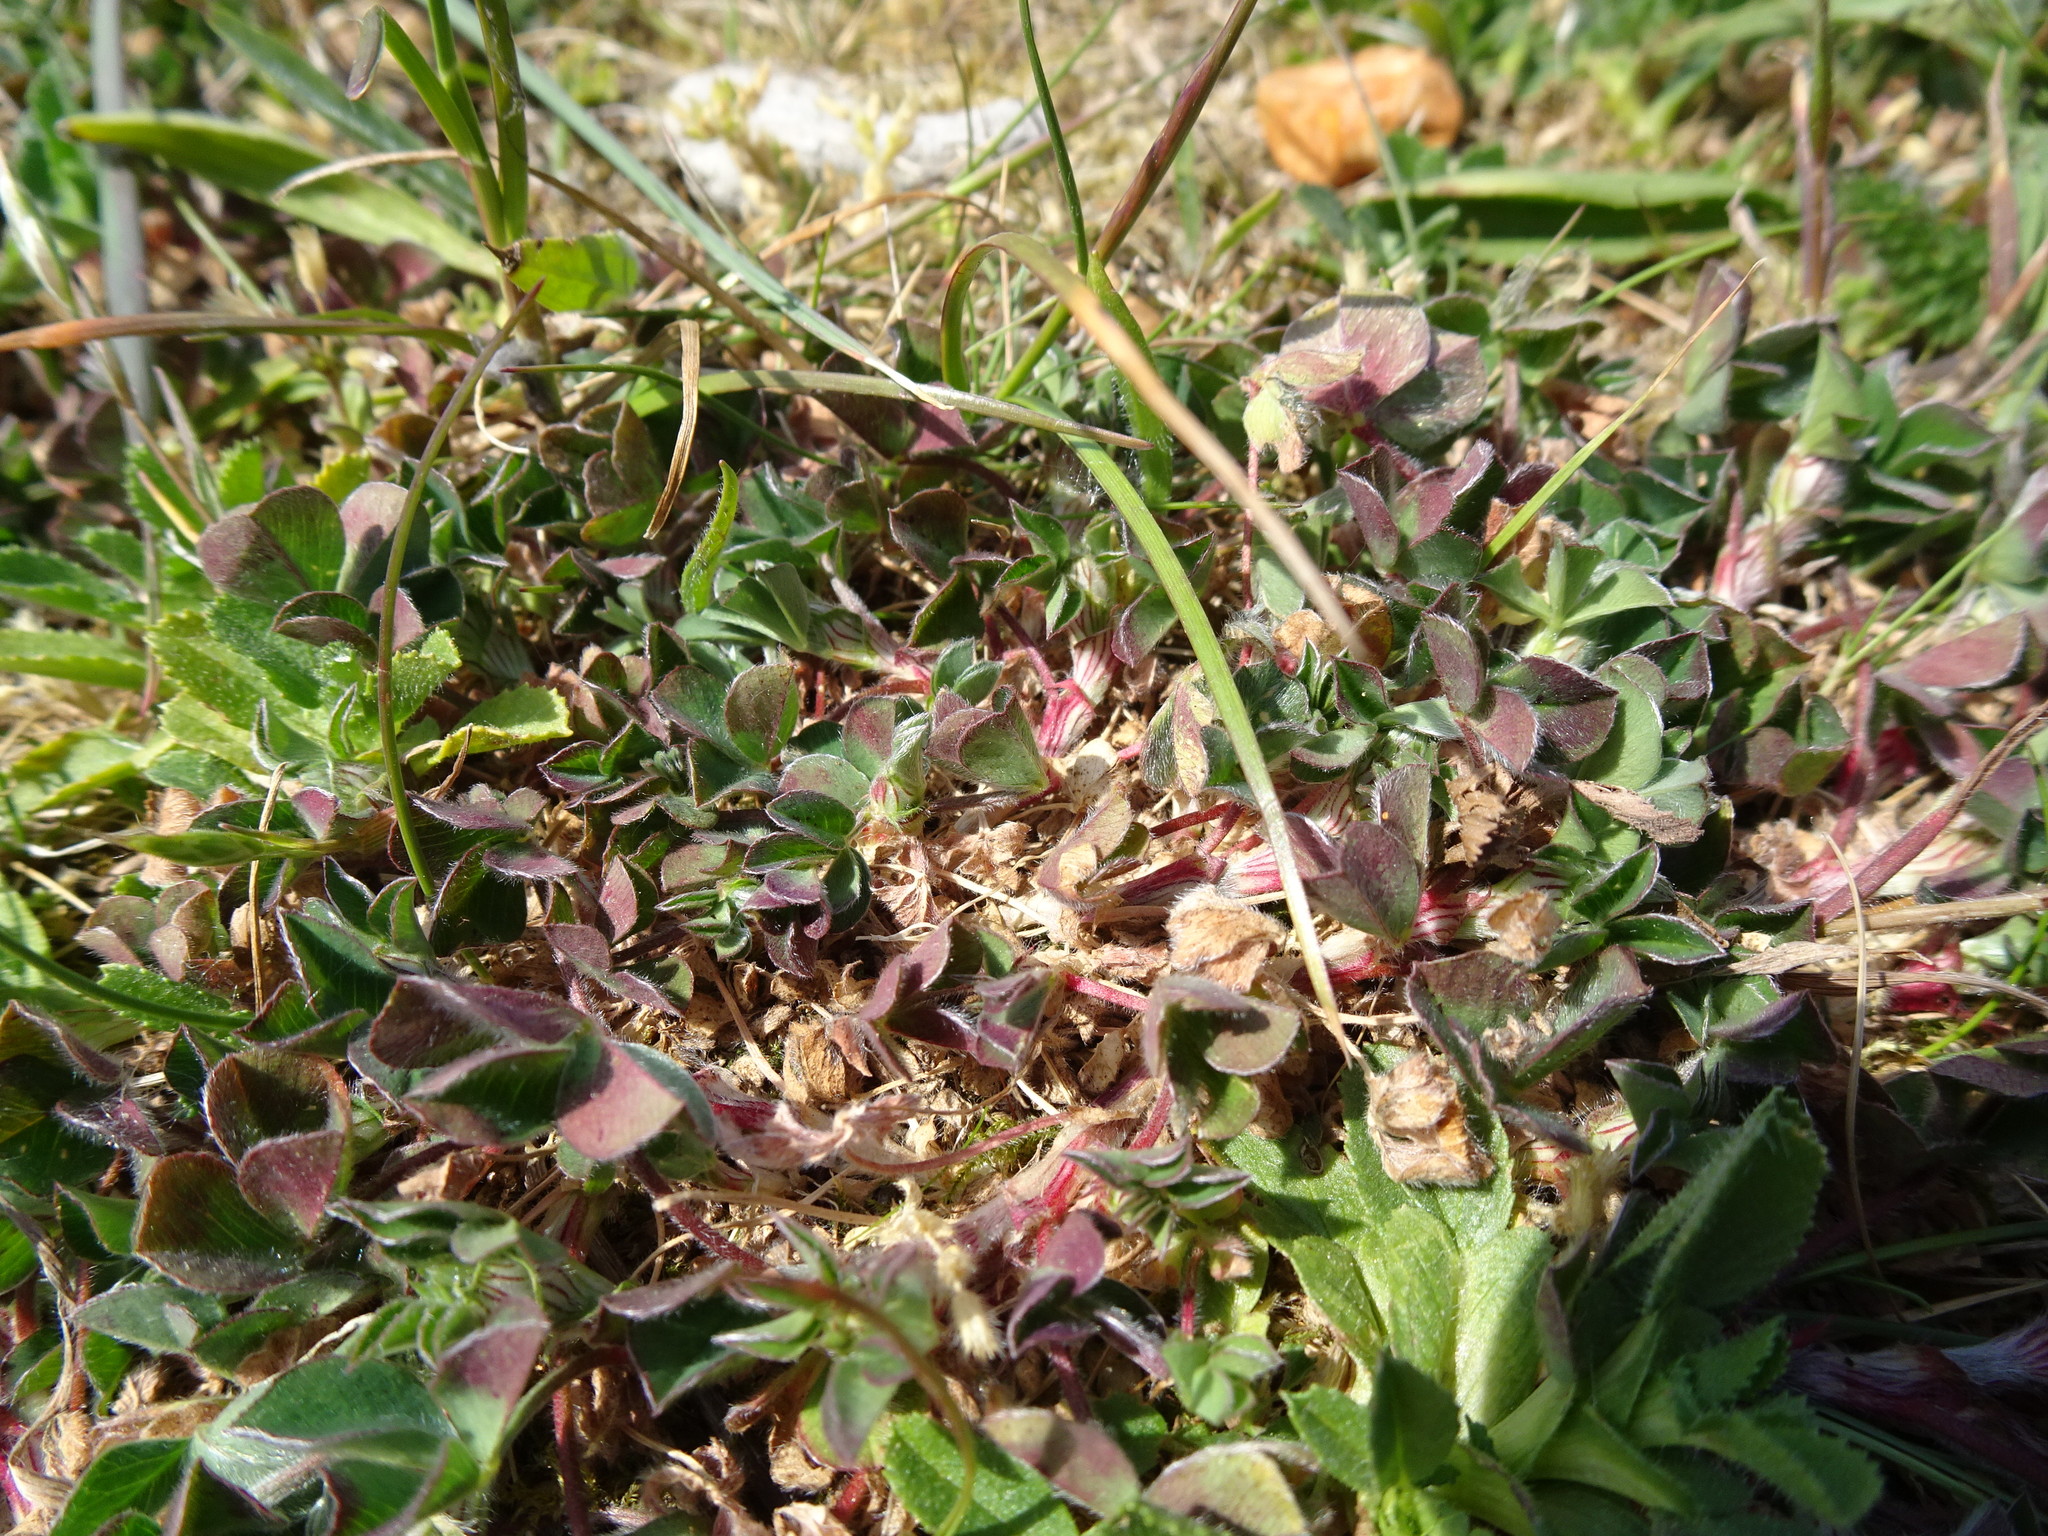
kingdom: Plantae
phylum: Tracheophyta
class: Magnoliopsida
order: Fabales
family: Fabaceae
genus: Trifolium
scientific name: Trifolium striatum
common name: Knotted clover
